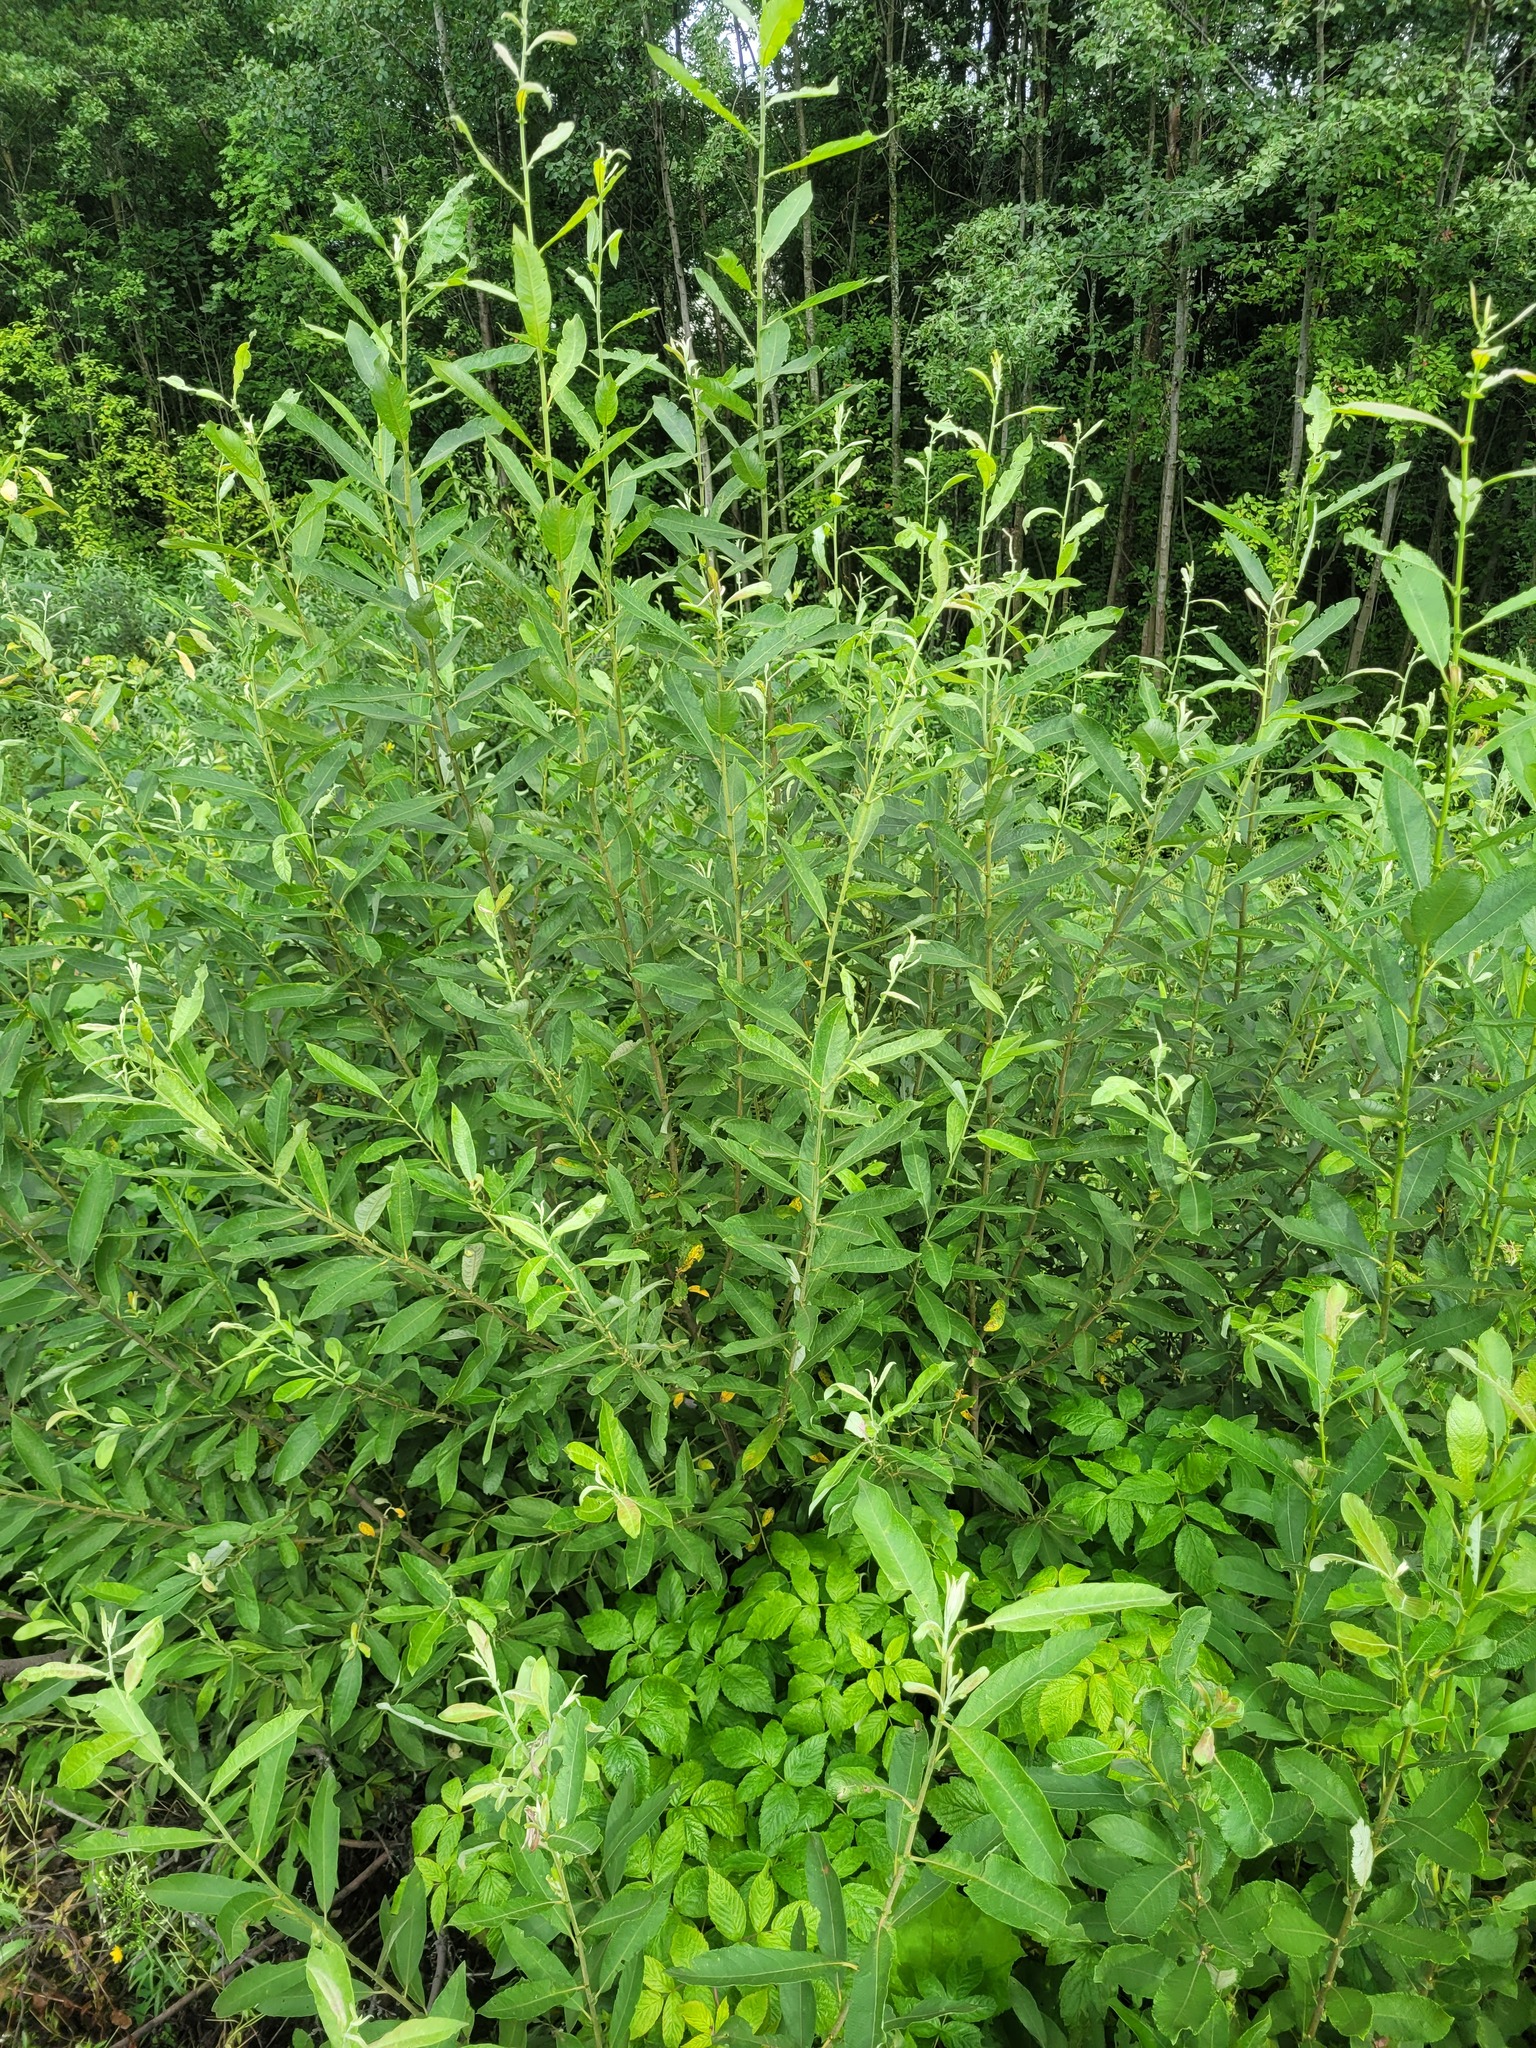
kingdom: Plantae
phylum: Tracheophyta
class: Magnoliopsida
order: Malpighiales
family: Salicaceae
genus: Salix
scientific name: Salix cinerea
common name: Common sallow
